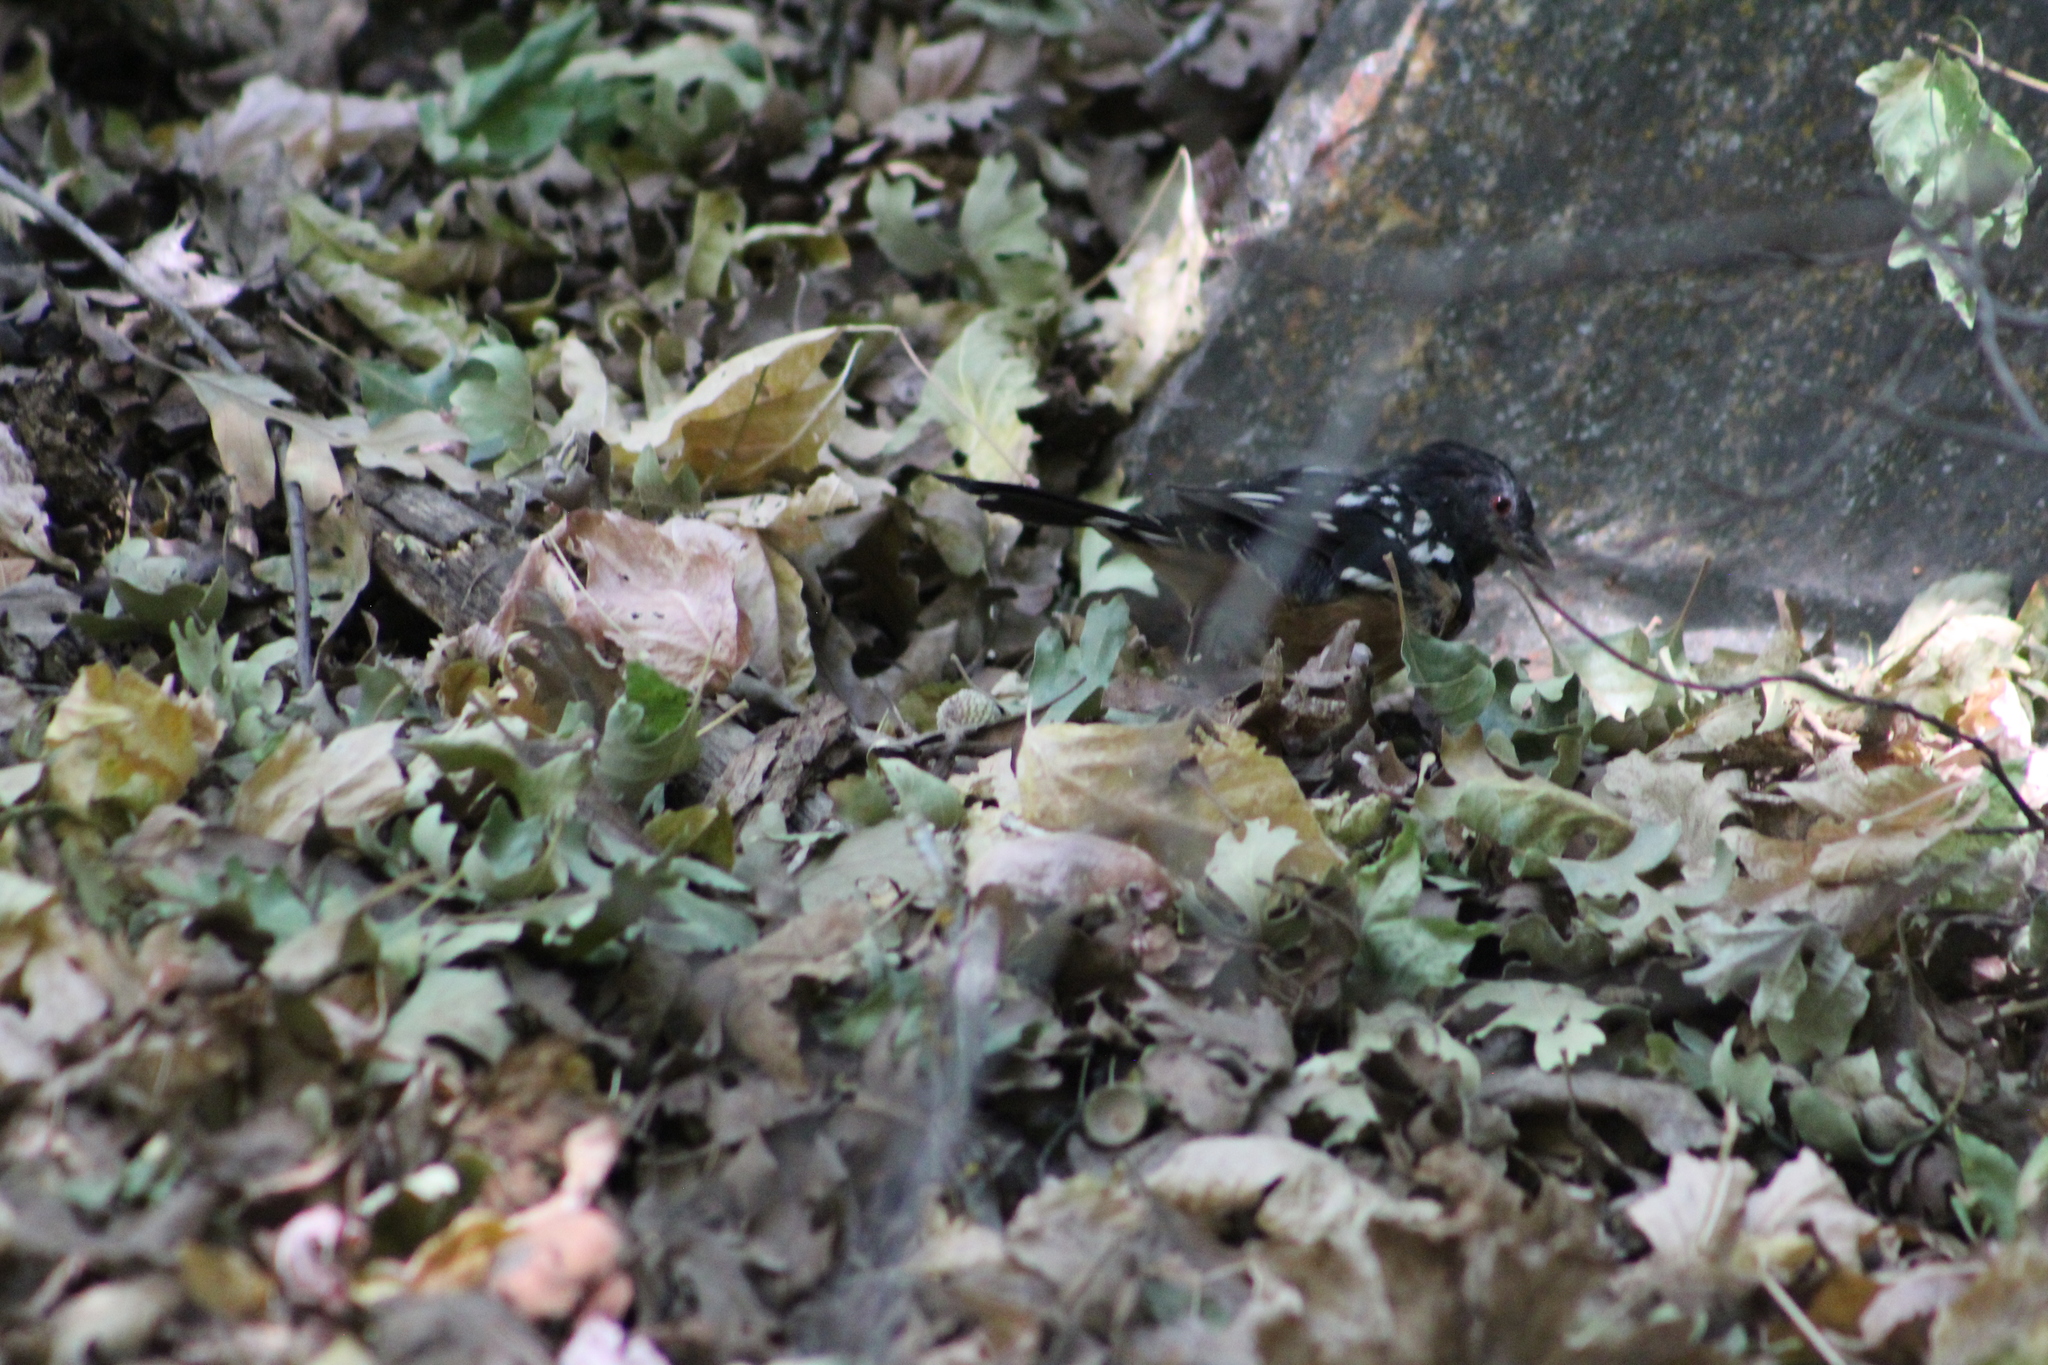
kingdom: Animalia
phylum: Chordata
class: Aves
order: Passeriformes
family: Passerellidae
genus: Pipilo
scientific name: Pipilo maculatus
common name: Spotted towhee
